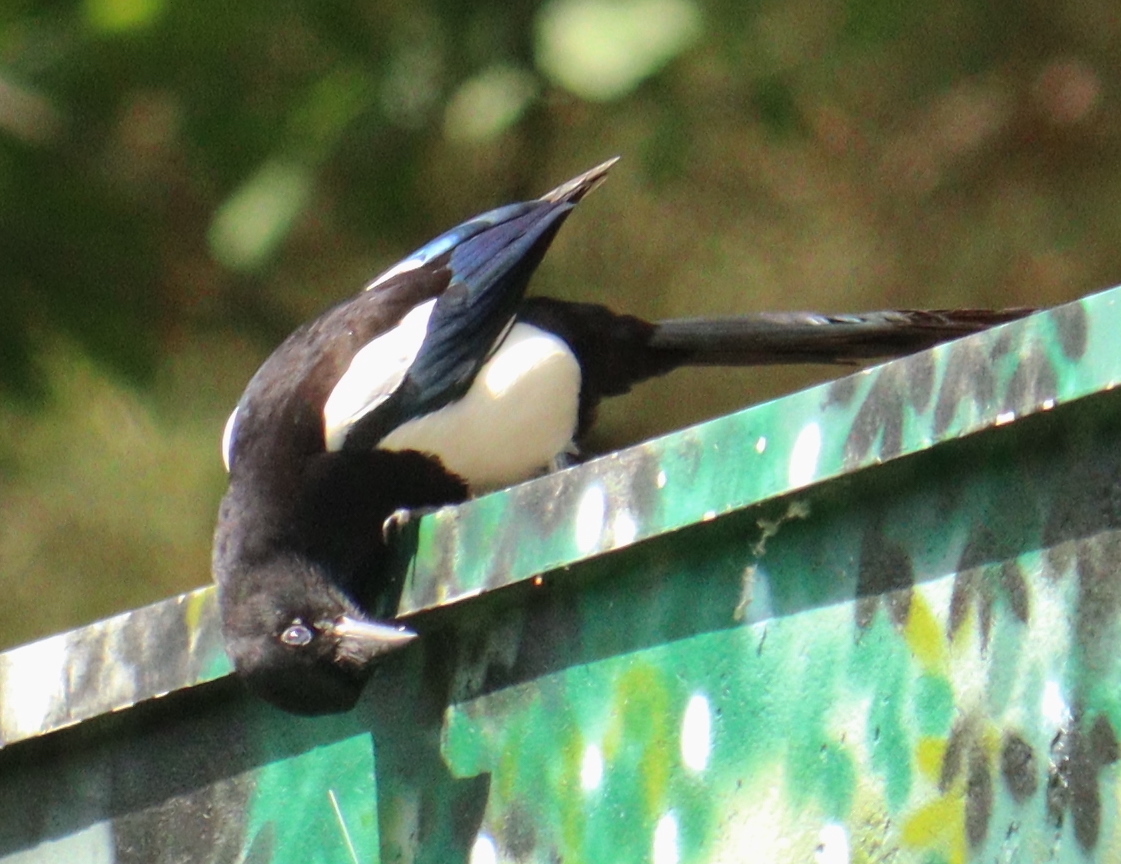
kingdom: Animalia
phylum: Chordata
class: Aves
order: Passeriformes
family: Corvidae
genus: Pica
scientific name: Pica pica
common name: Eurasian magpie
